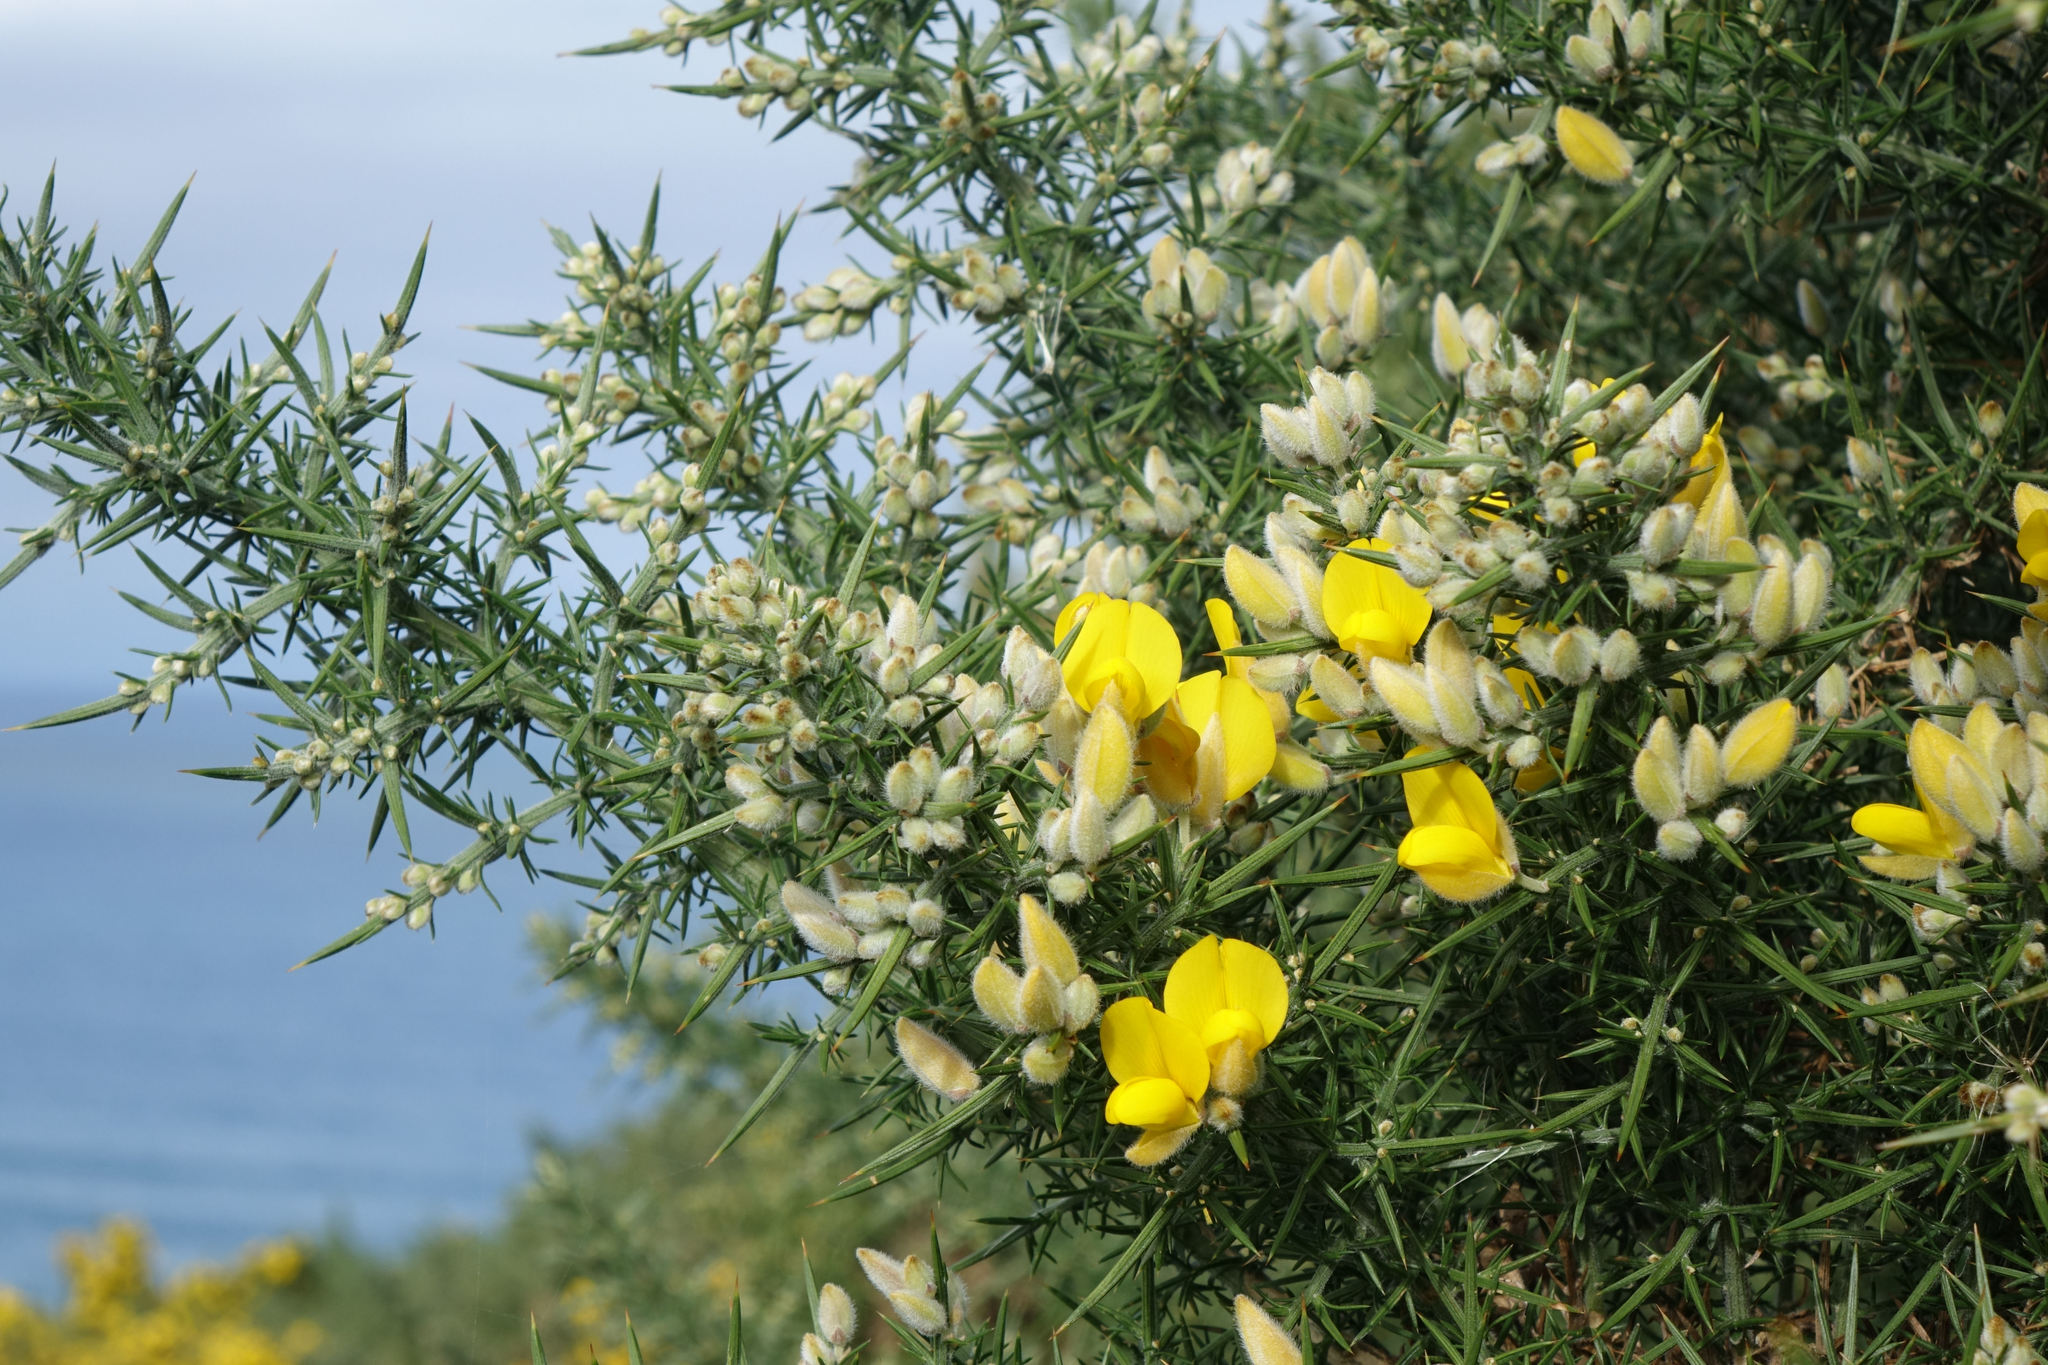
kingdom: Plantae
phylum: Tracheophyta
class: Magnoliopsida
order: Fabales
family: Fabaceae
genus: Ulex
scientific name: Ulex europaeus
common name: Common gorse
